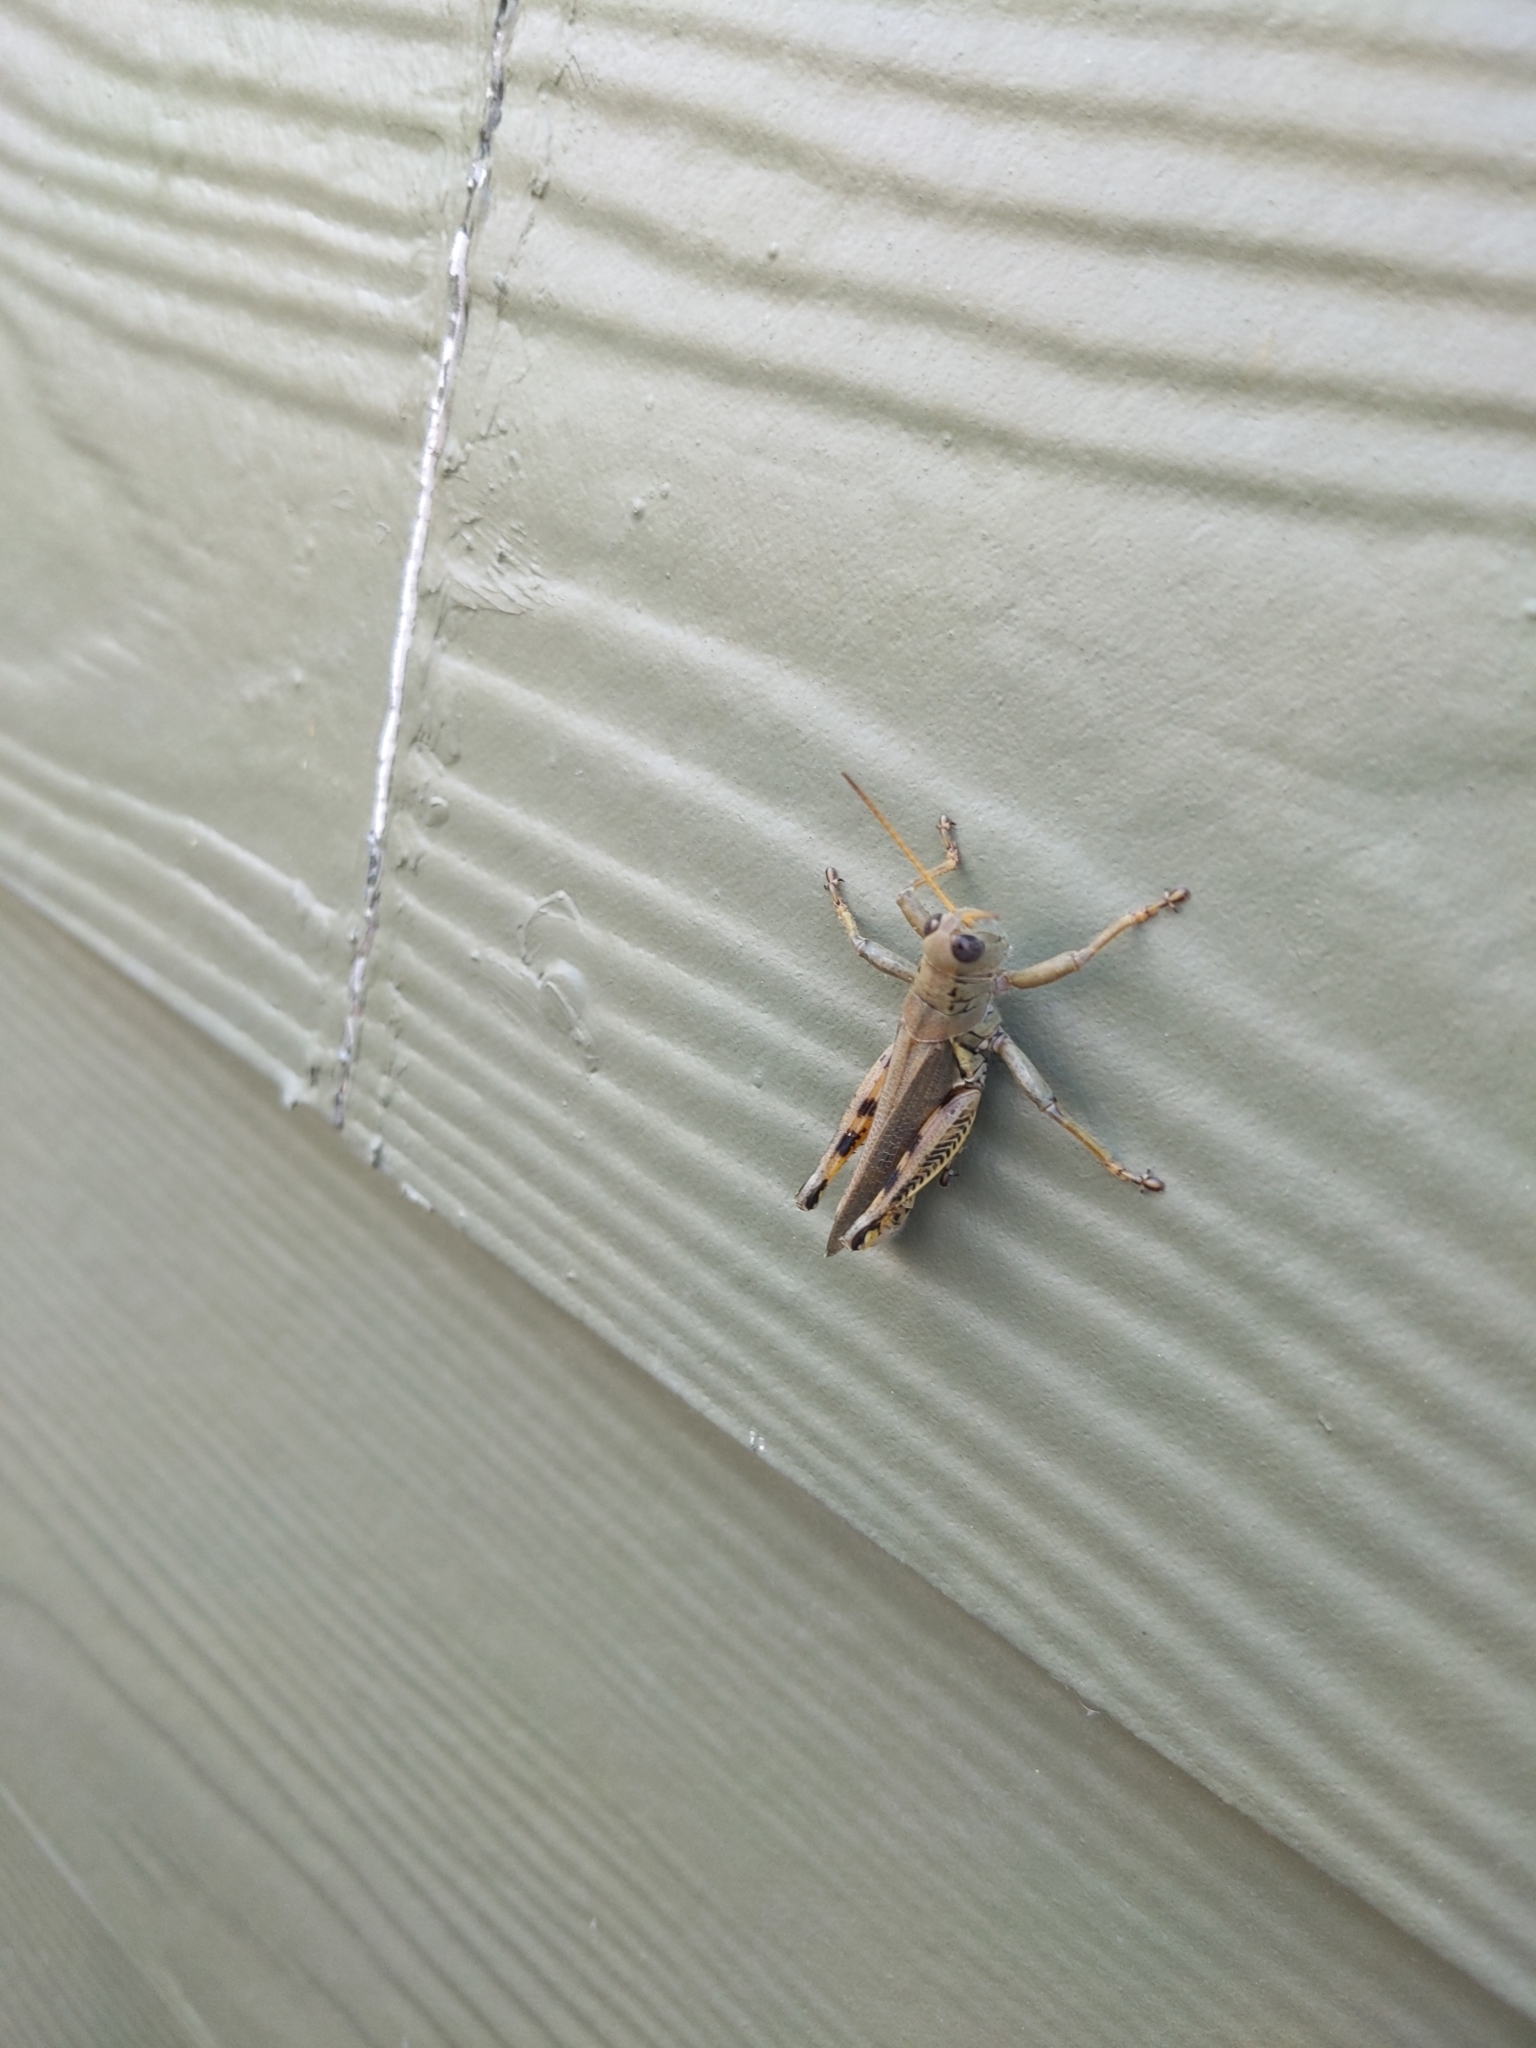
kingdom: Animalia
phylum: Arthropoda
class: Insecta
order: Orthoptera
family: Acrididae
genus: Melanoplus
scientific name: Melanoplus differentialis
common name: Differential grasshopper
